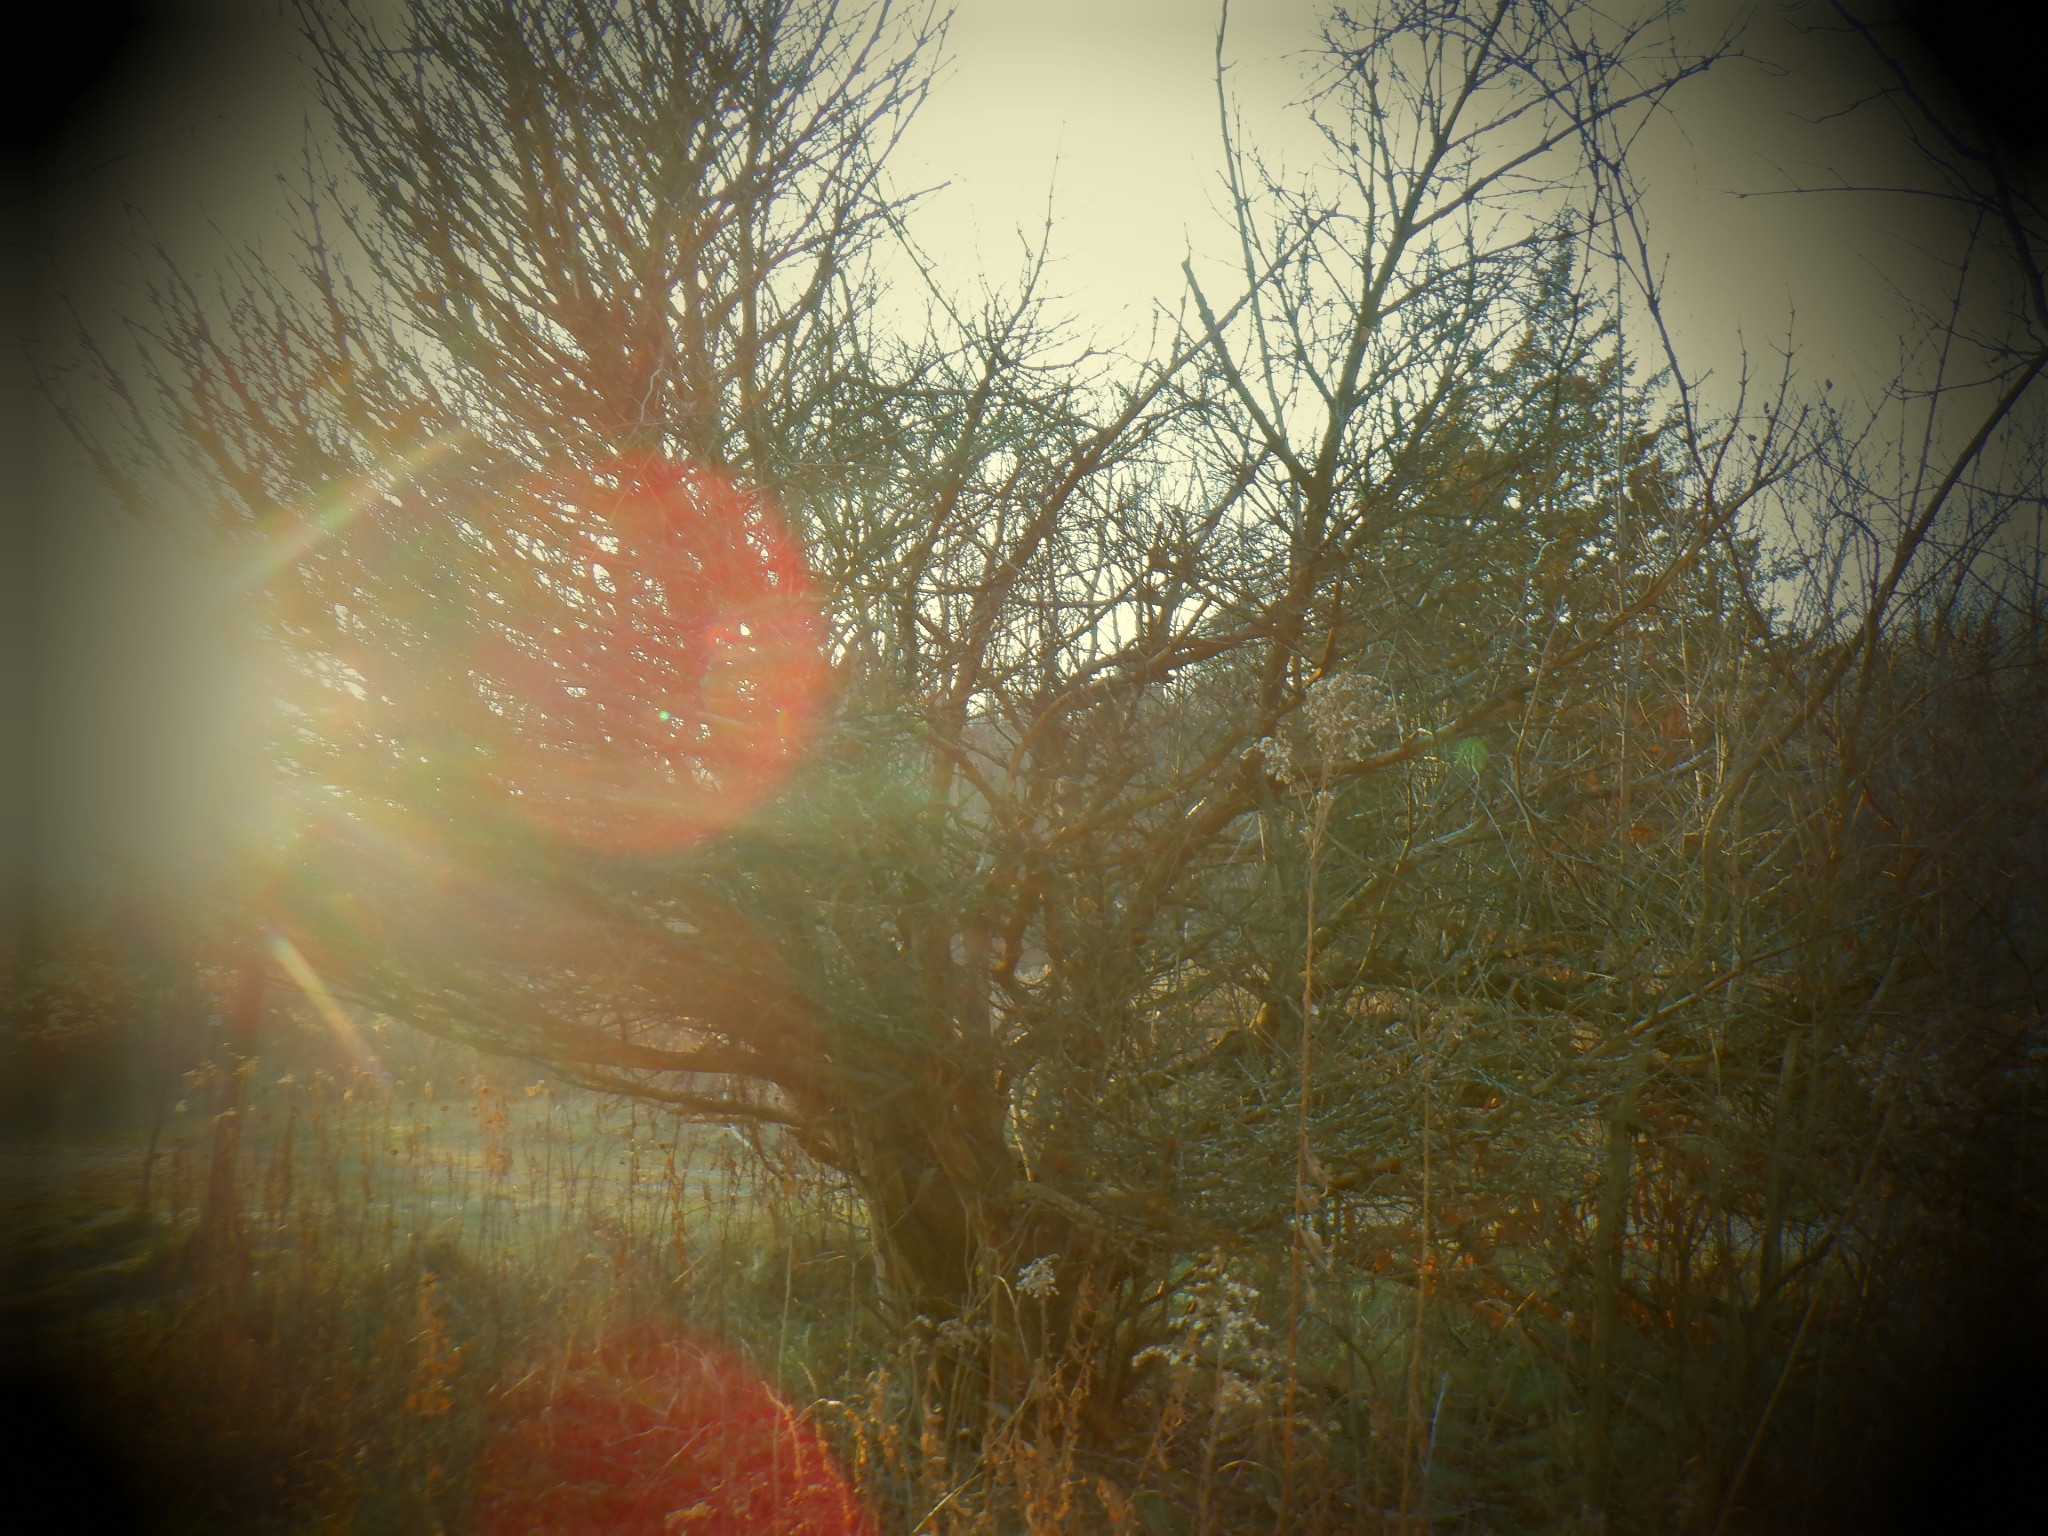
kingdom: Plantae
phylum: Tracheophyta
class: Pinopsida
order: Pinales
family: Cupressaceae
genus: Juniperus
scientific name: Juniperus virginiana
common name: Red juniper
